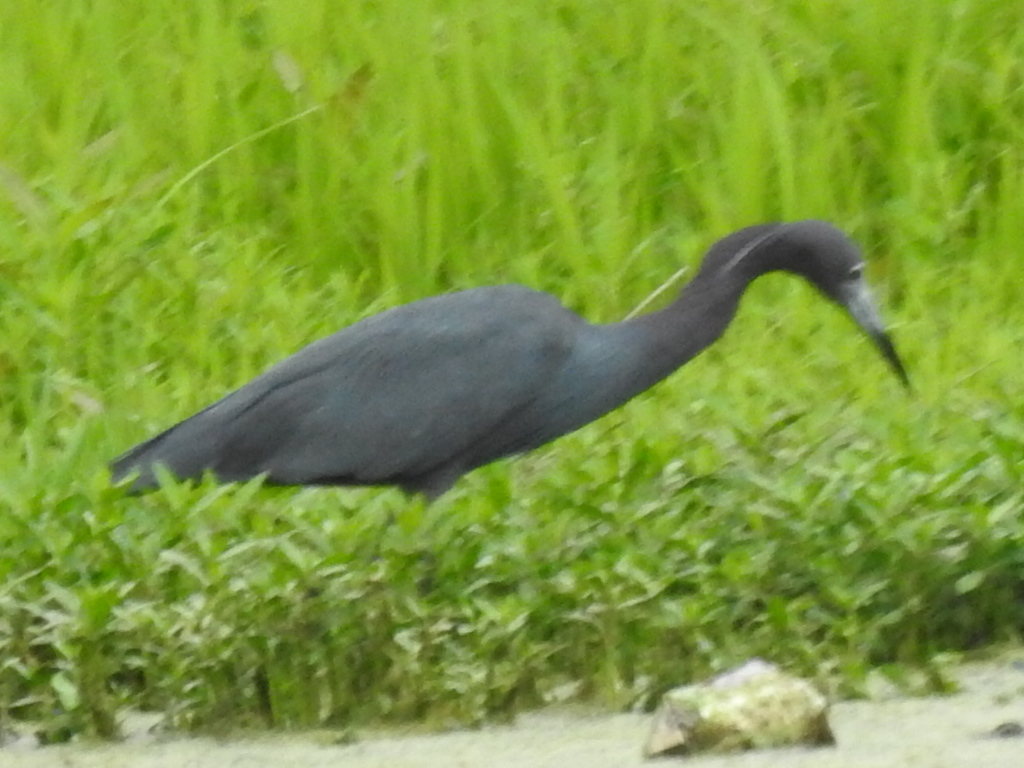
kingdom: Animalia
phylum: Chordata
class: Aves
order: Pelecaniformes
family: Ardeidae
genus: Egretta
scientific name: Egretta caerulea
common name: Little blue heron
